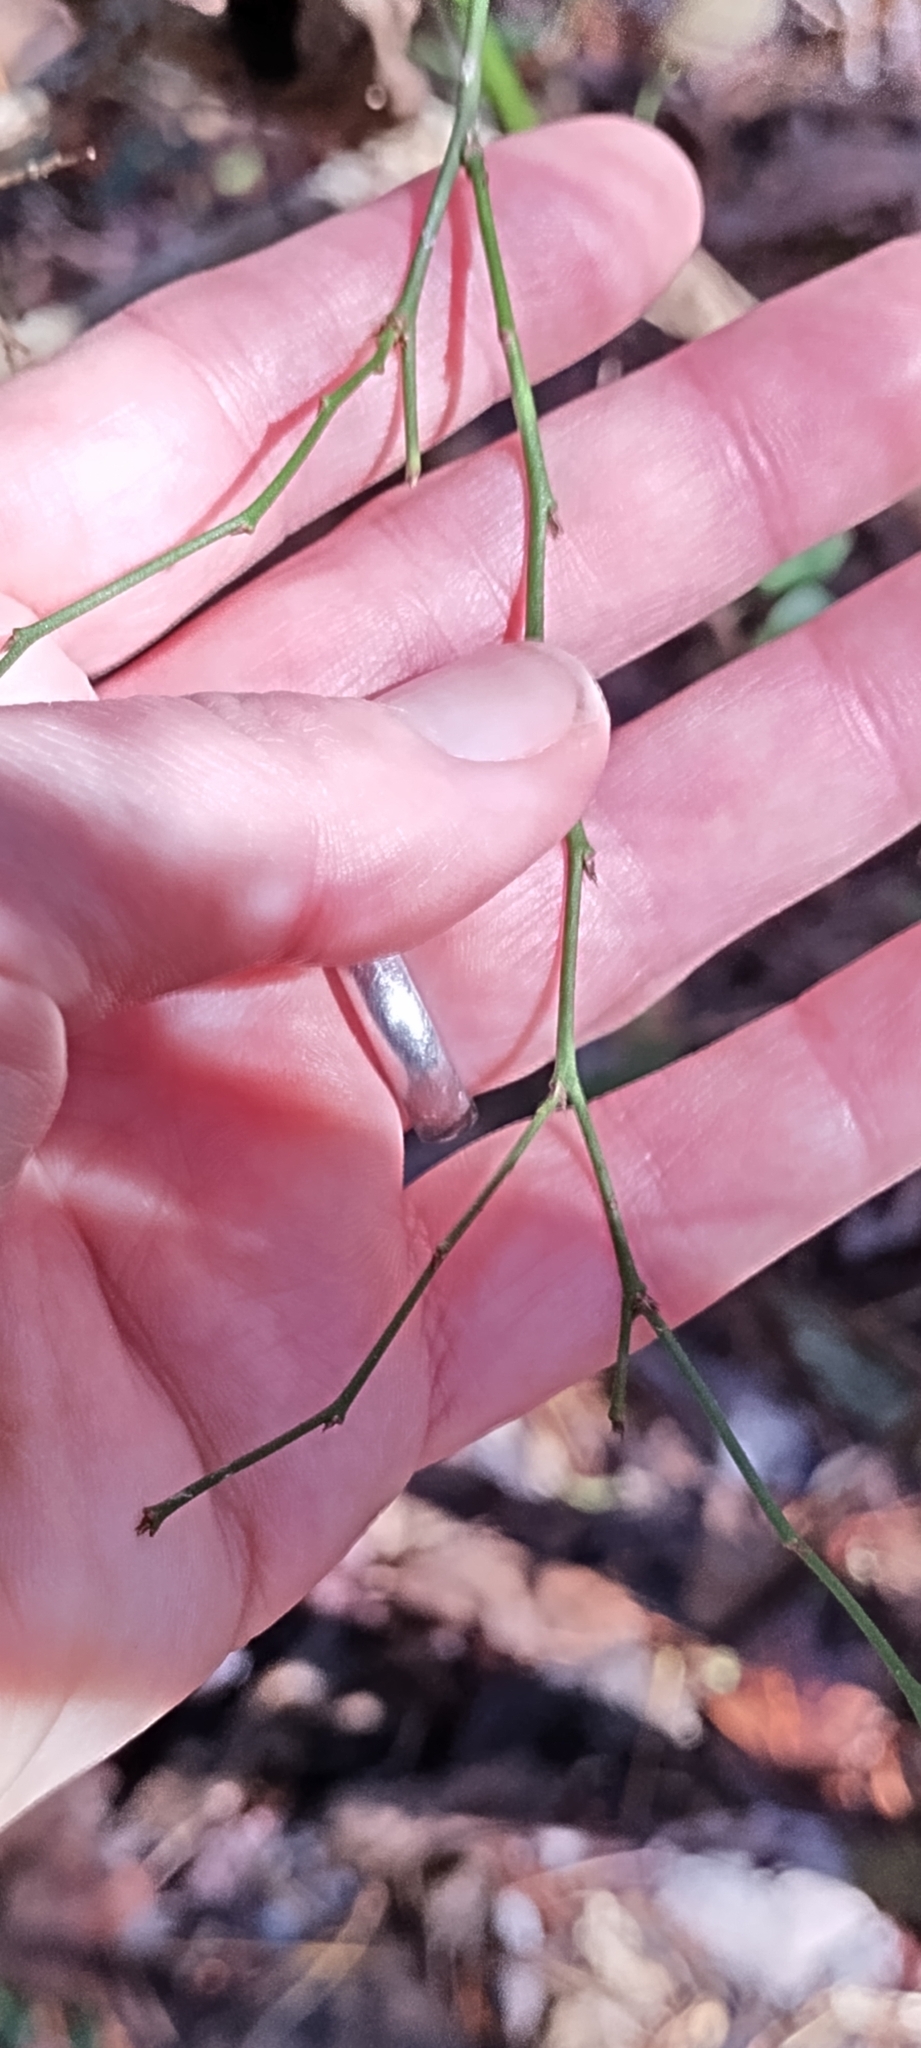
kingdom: Plantae
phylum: Tracheophyta
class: Magnoliopsida
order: Ericales
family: Ericaceae
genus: Vaccinium
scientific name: Vaccinium corymbosum
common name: Blueberry
